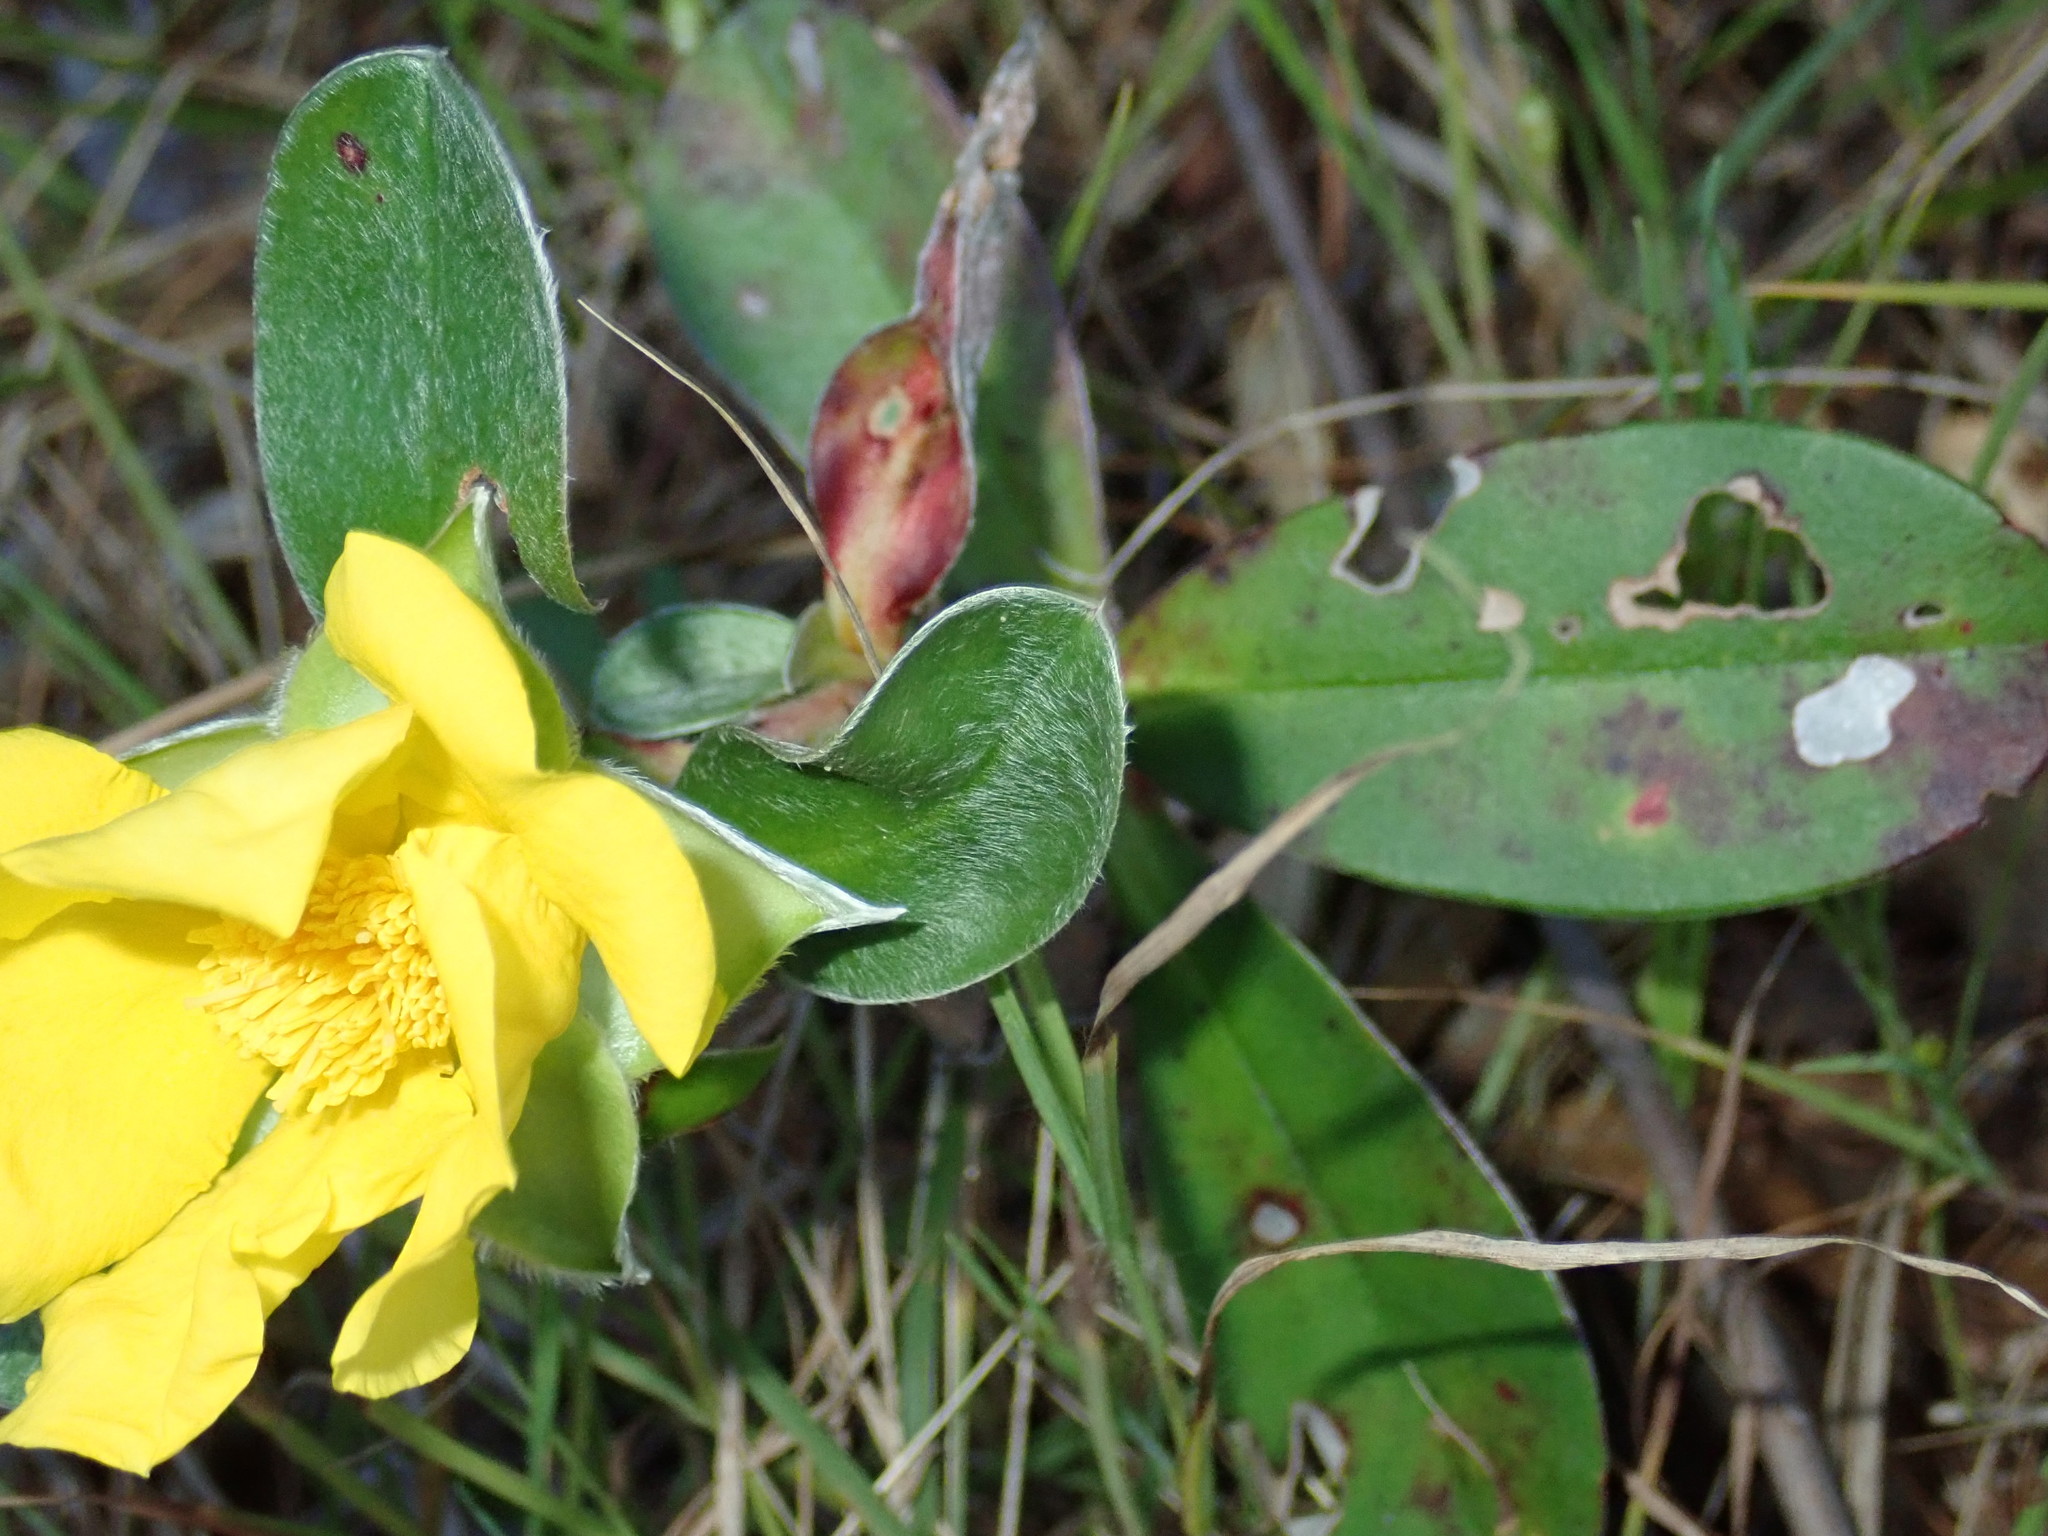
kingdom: Plantae
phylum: Tracheophyta
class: Magnoliopsida
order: Dilleniales
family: Dilleniaceae
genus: Hibbertia
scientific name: Hibbertia scandens
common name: Climbing guinea-flower
